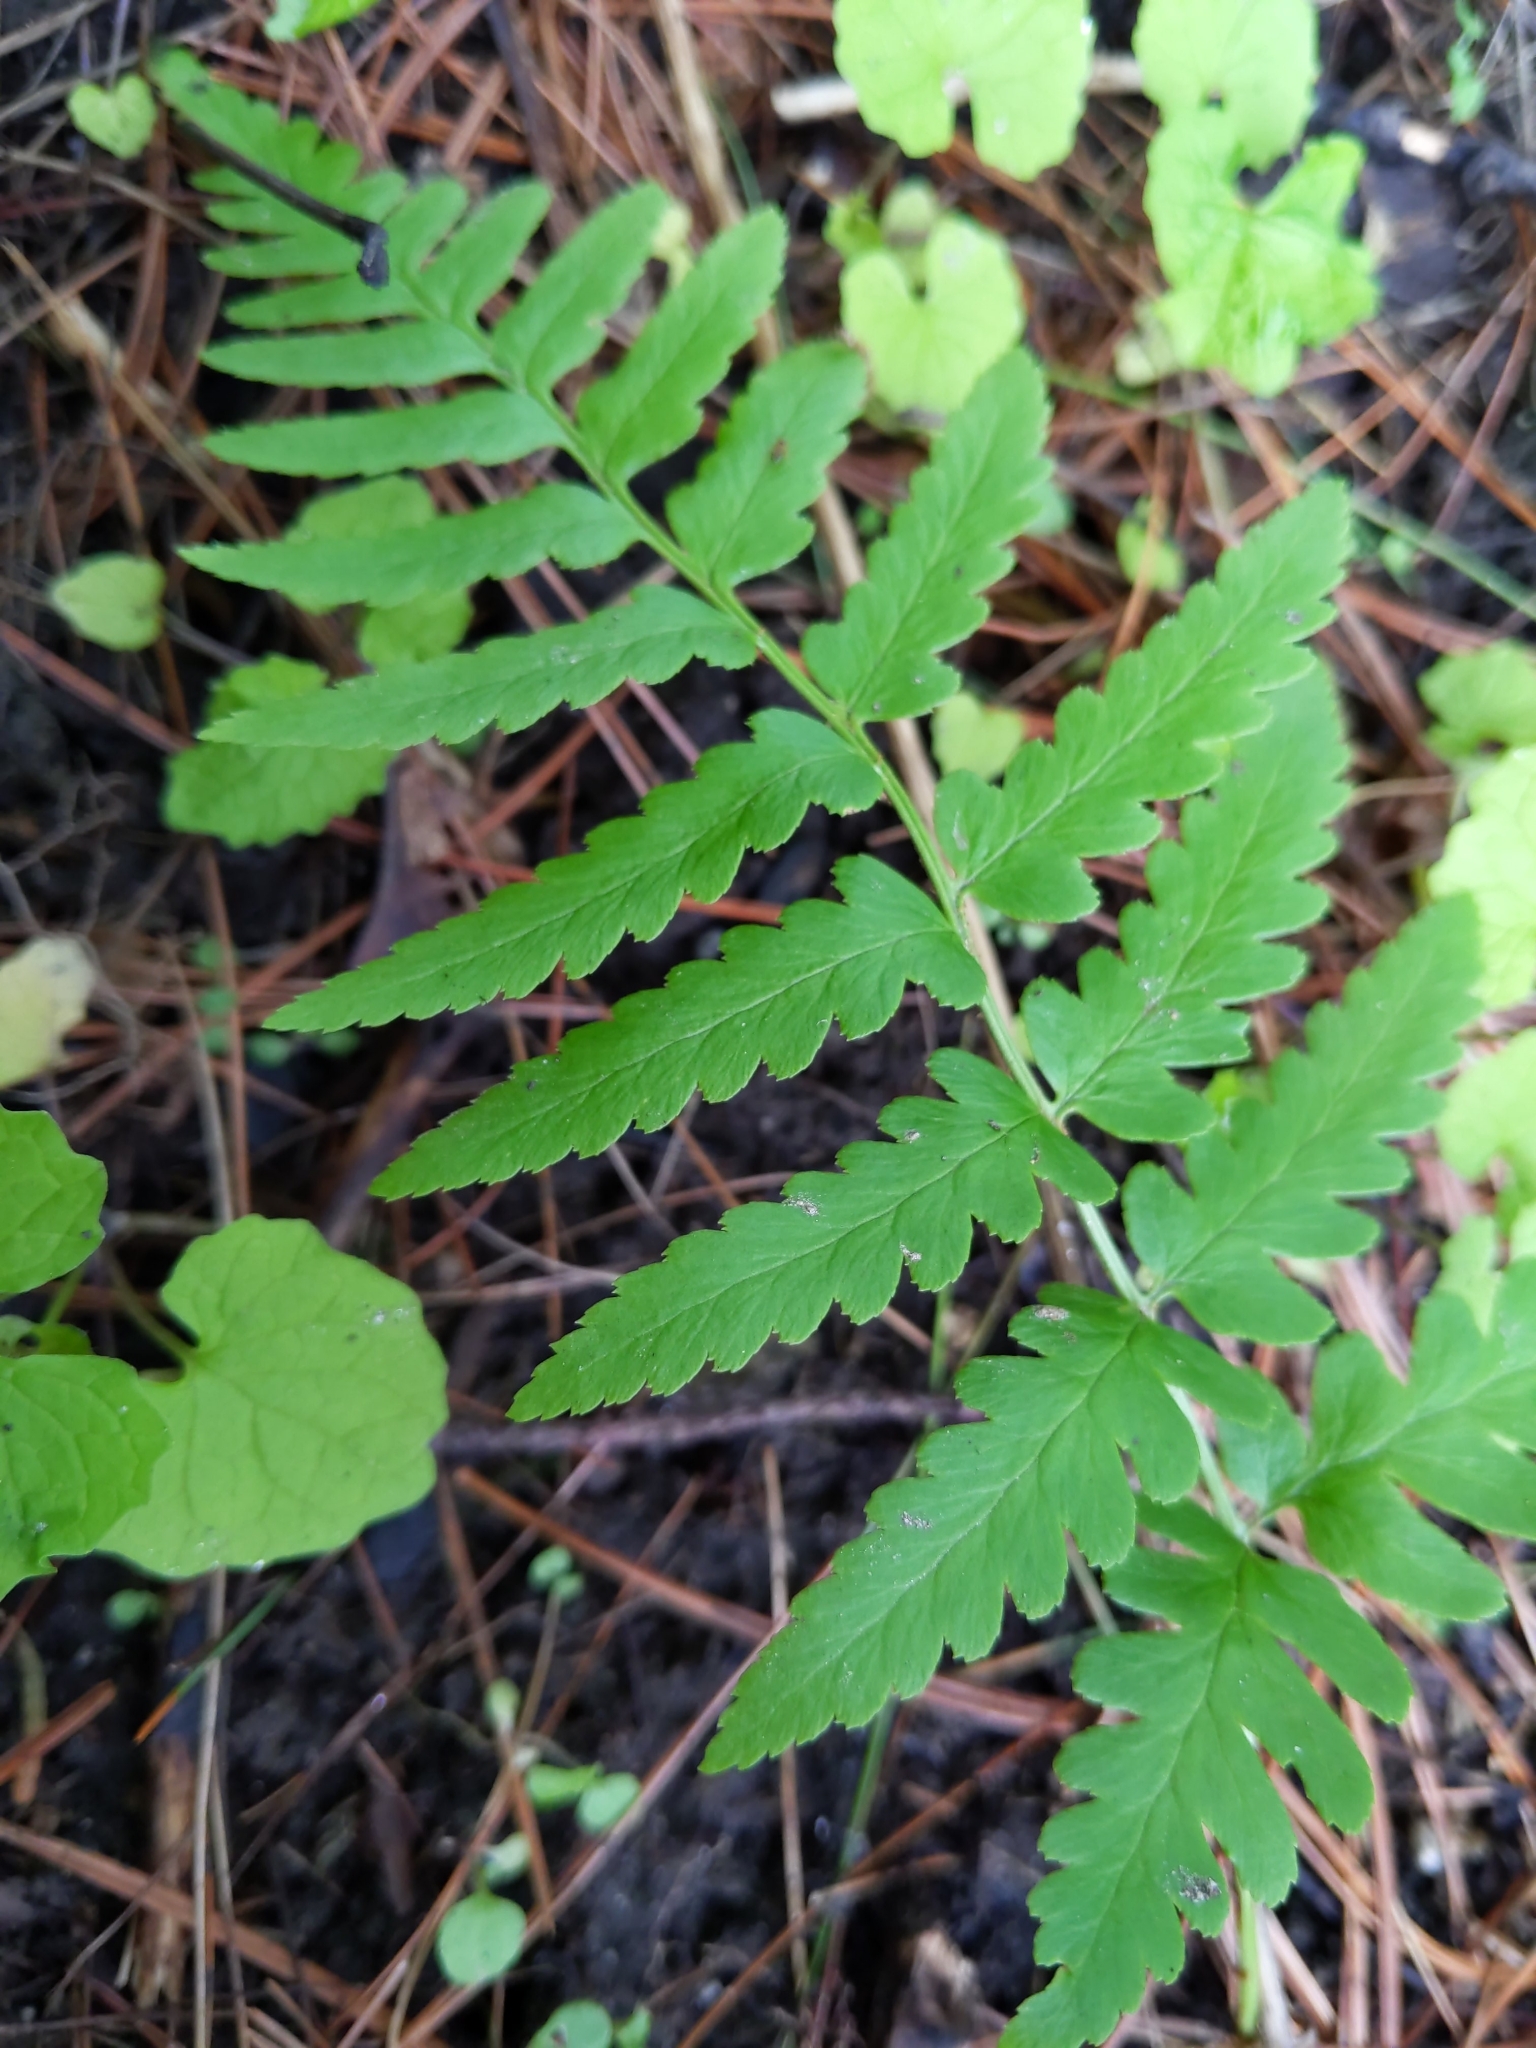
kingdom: Plantae
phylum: Tracheophyta
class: Polypodiopsida
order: Polypodiales
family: Dryopteridaceae
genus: Dryopteris
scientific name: Dryopteris cristata
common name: Crested wood fern
